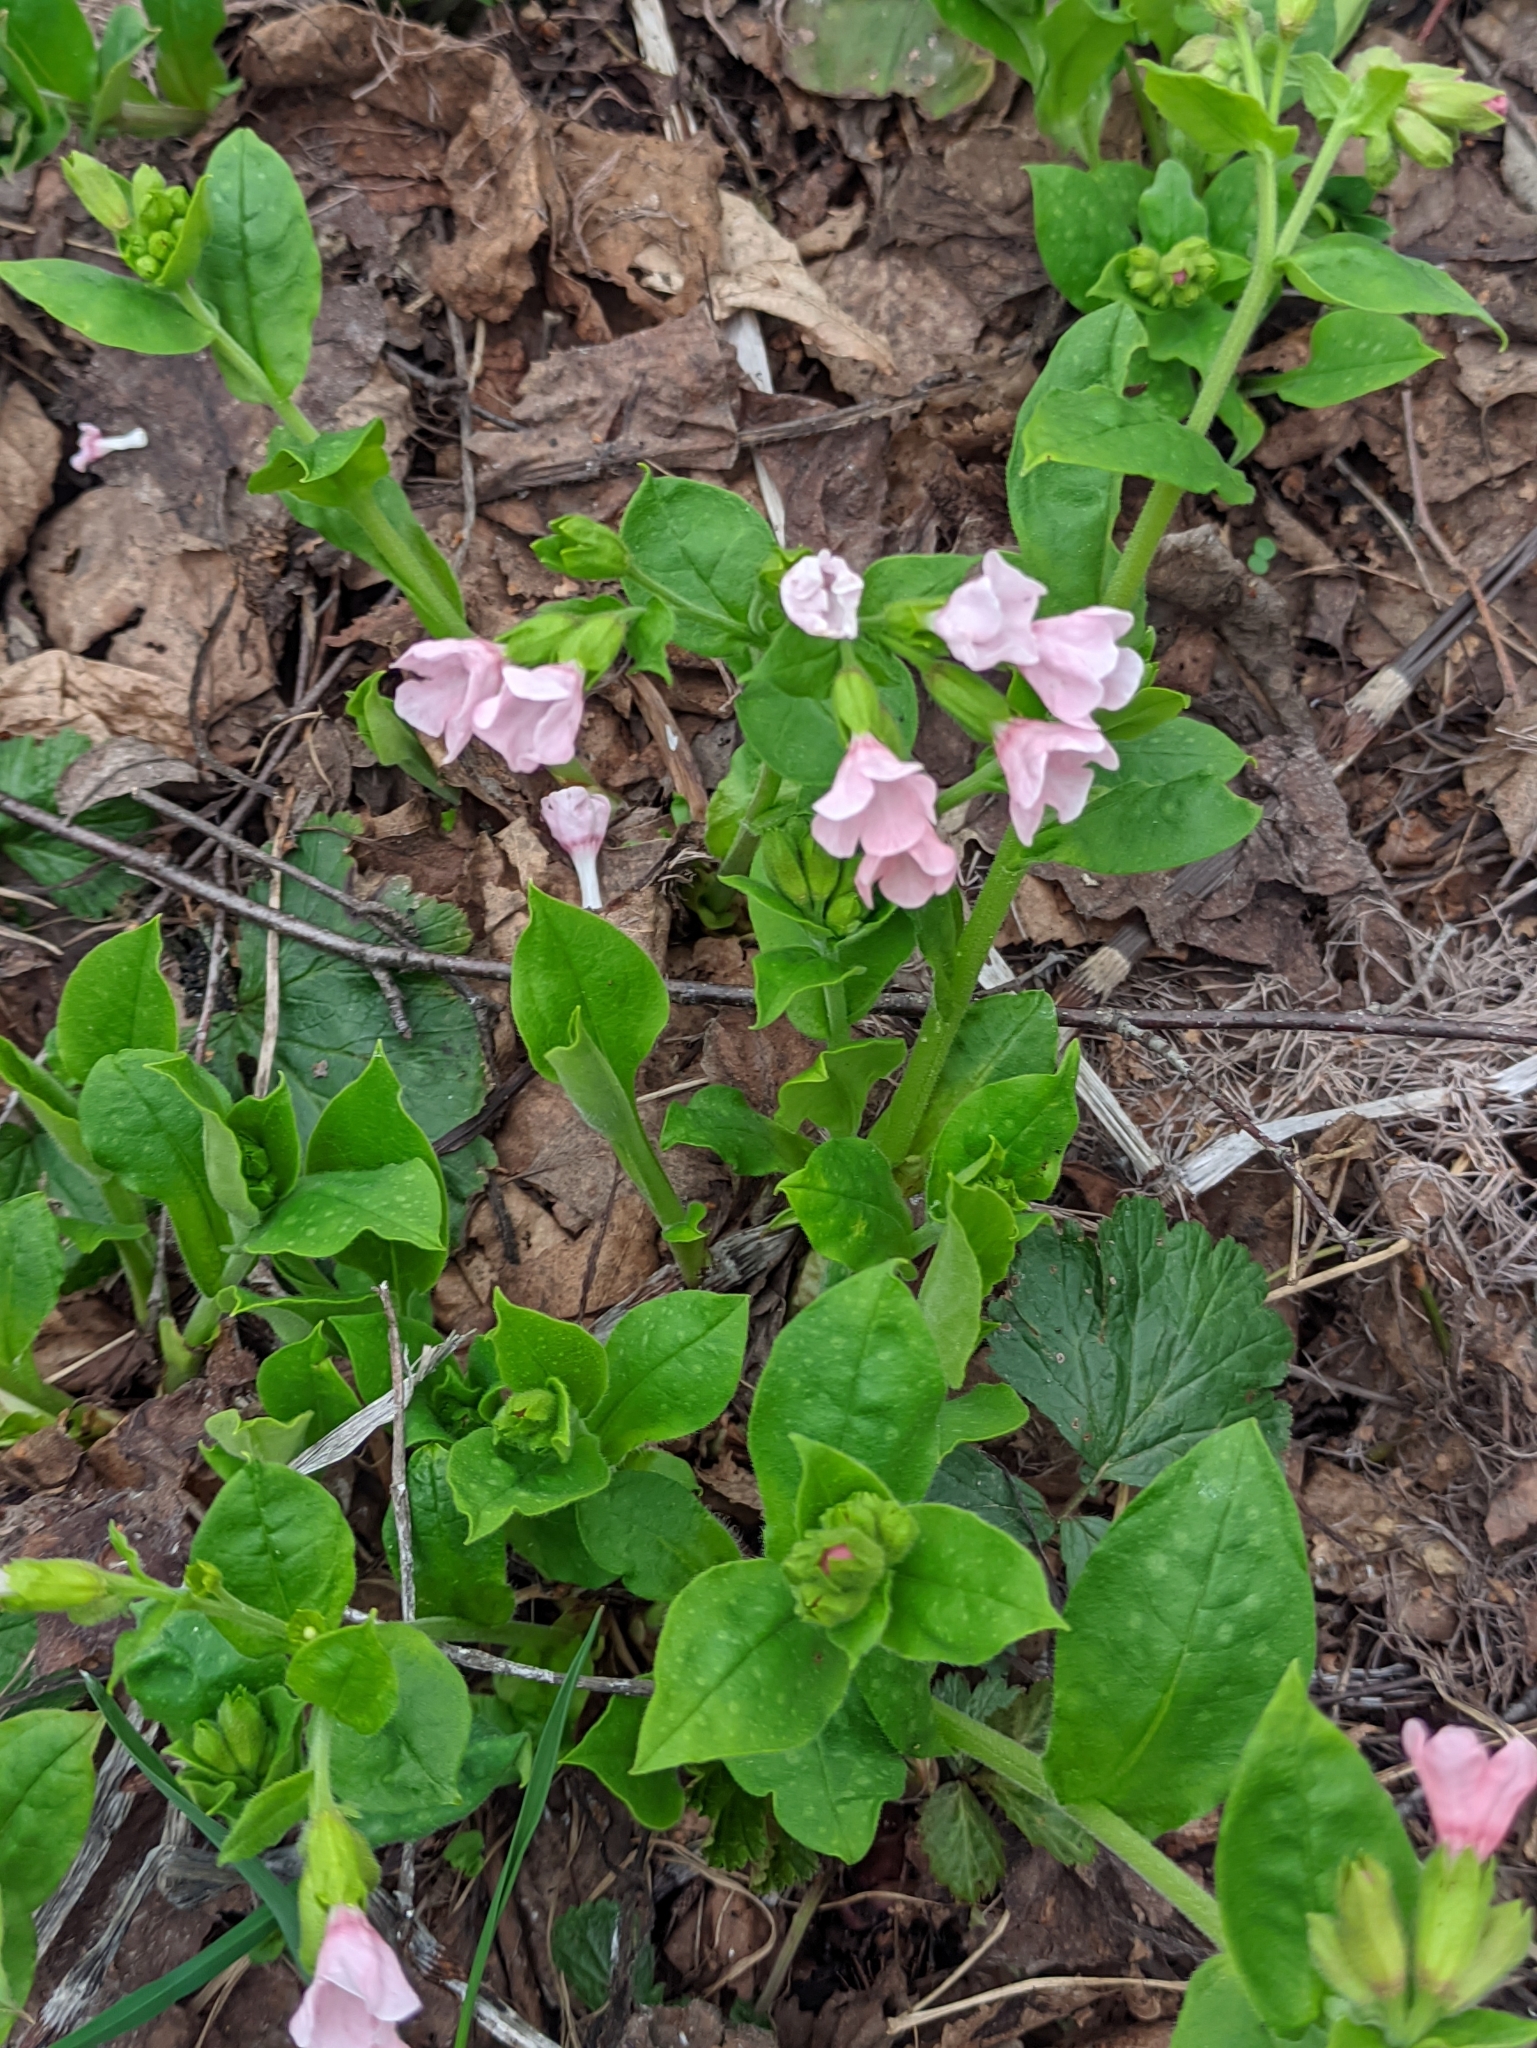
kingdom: Plantae
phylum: Tracheophyta
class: Magnoliopsida
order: Boraginales
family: Boraginaceae
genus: Pulmonaria
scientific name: Pulmonaria obscura
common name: Suffolk lungwort
